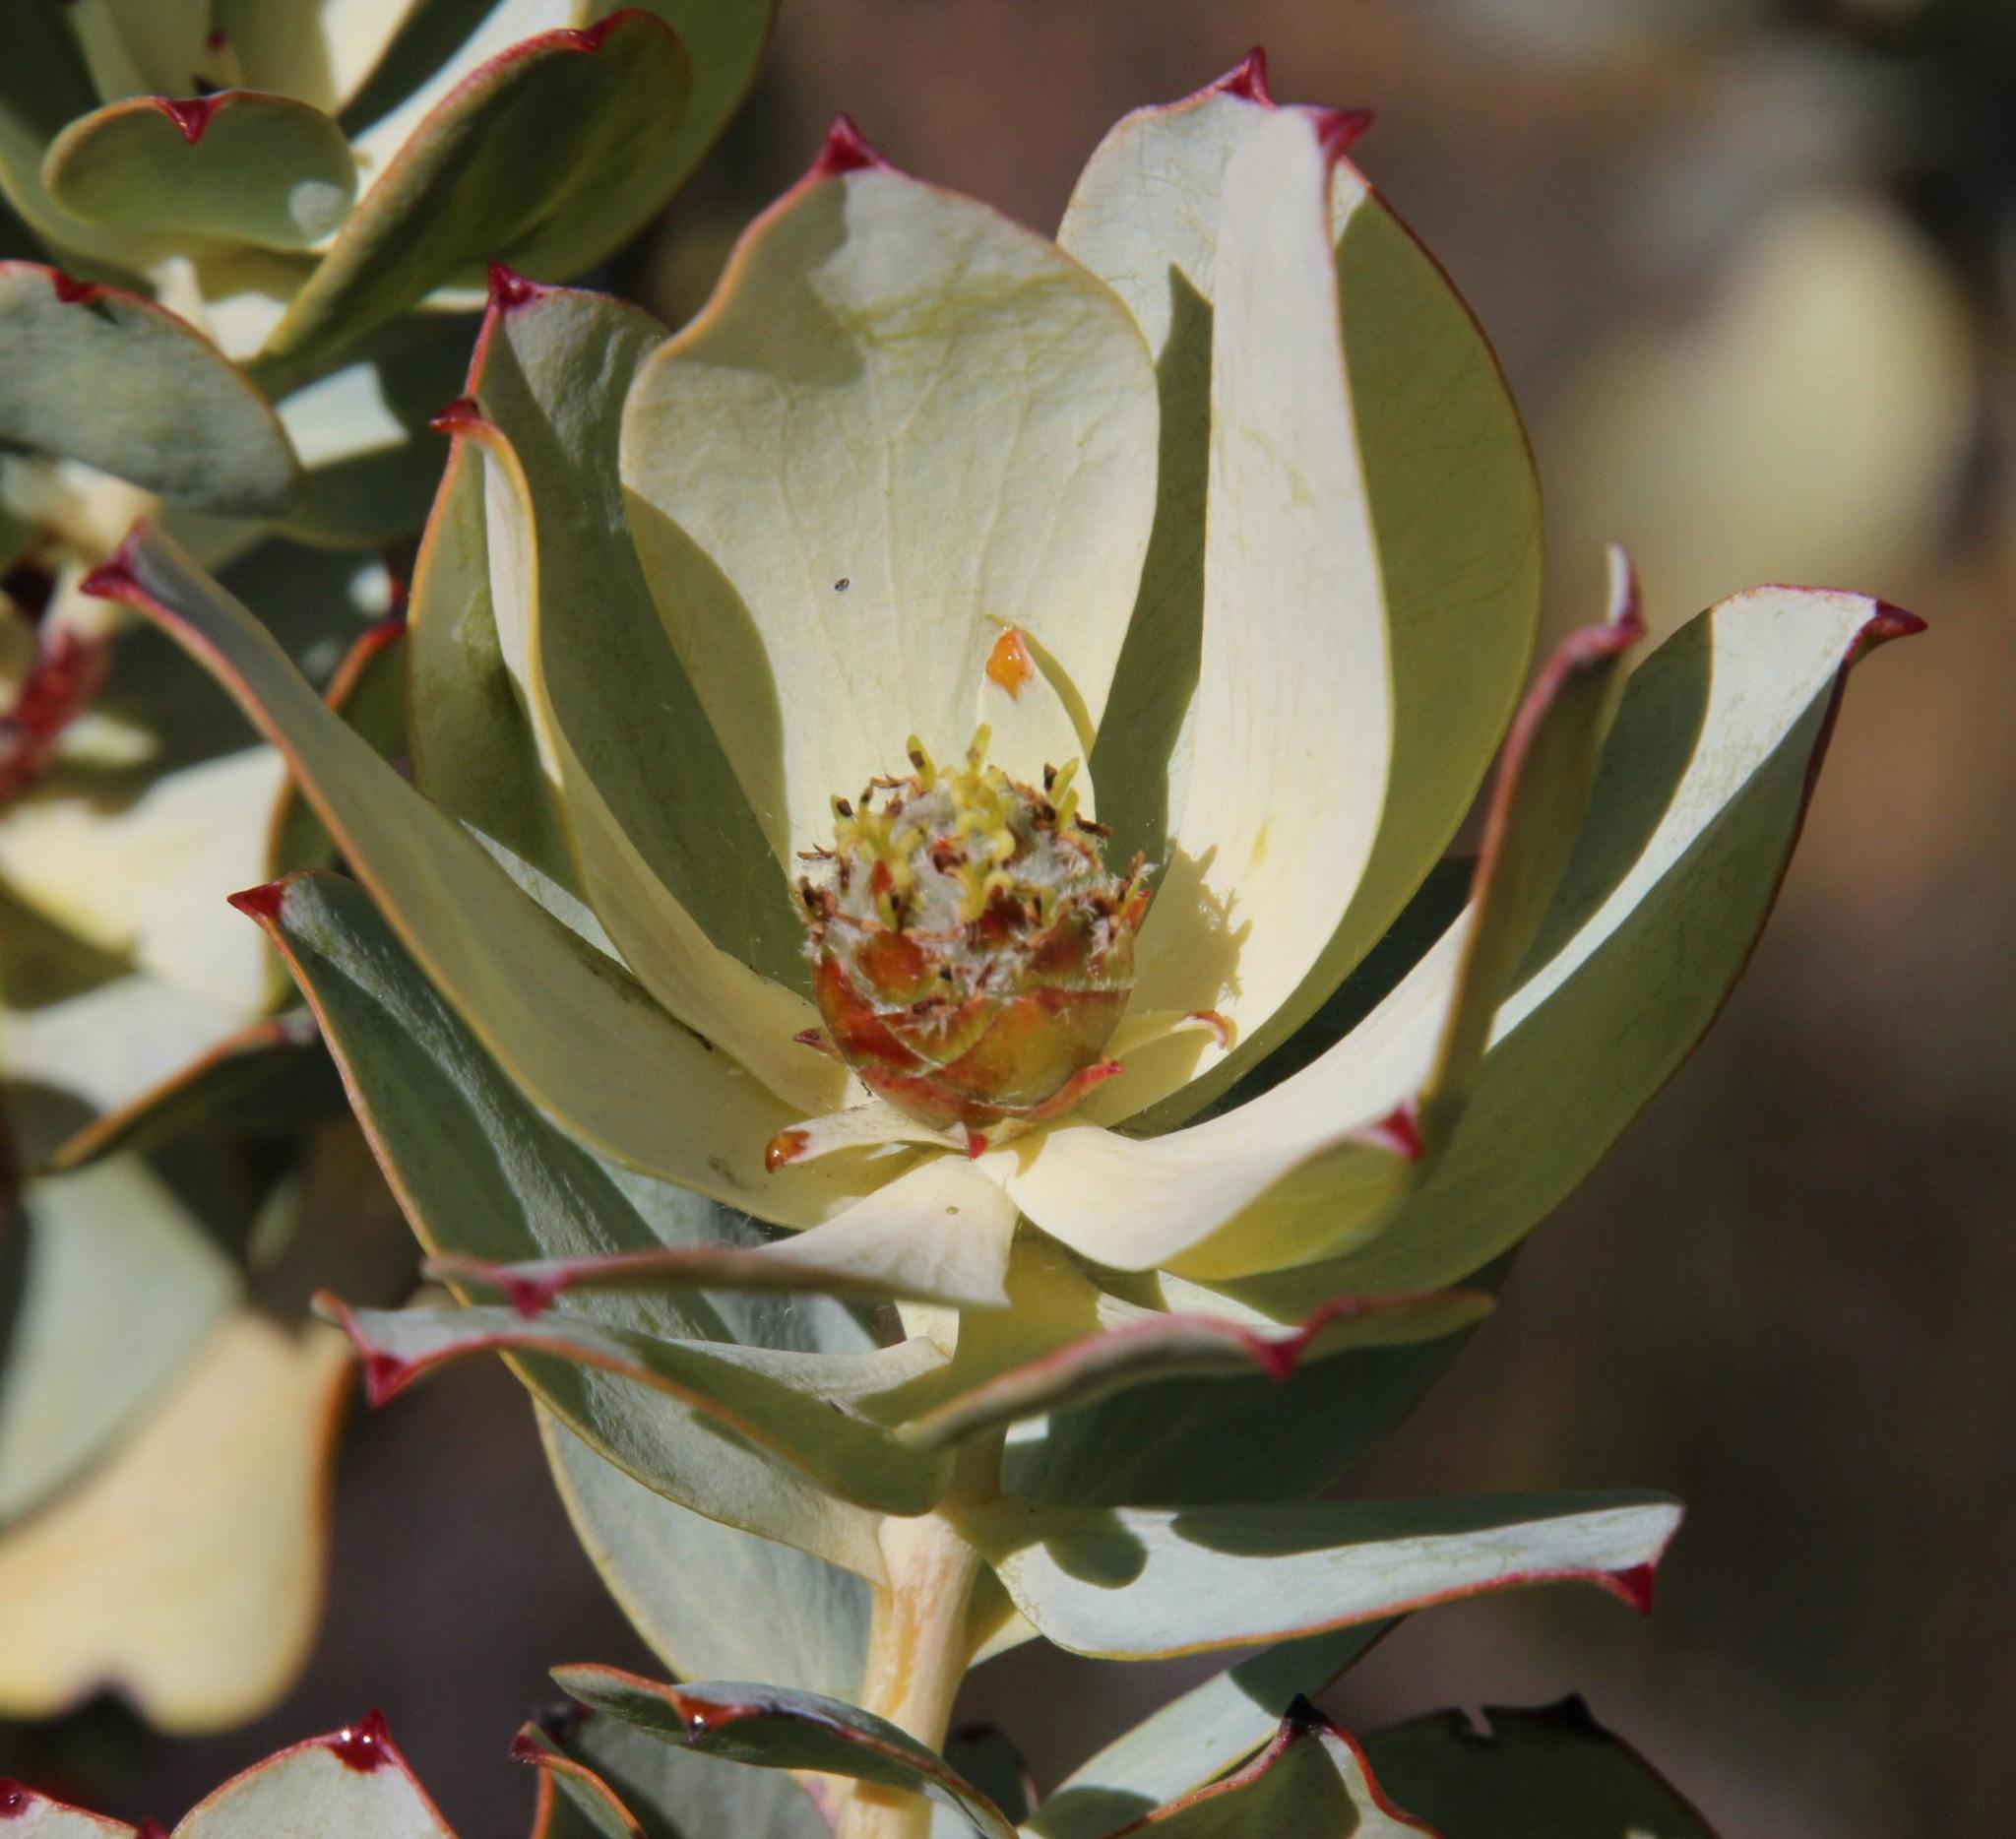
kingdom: Plantae
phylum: Tracheophyta
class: Magnoliopsida
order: Proteales
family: Proteaceae
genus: Leucadendron
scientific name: Leucadendron roodii
